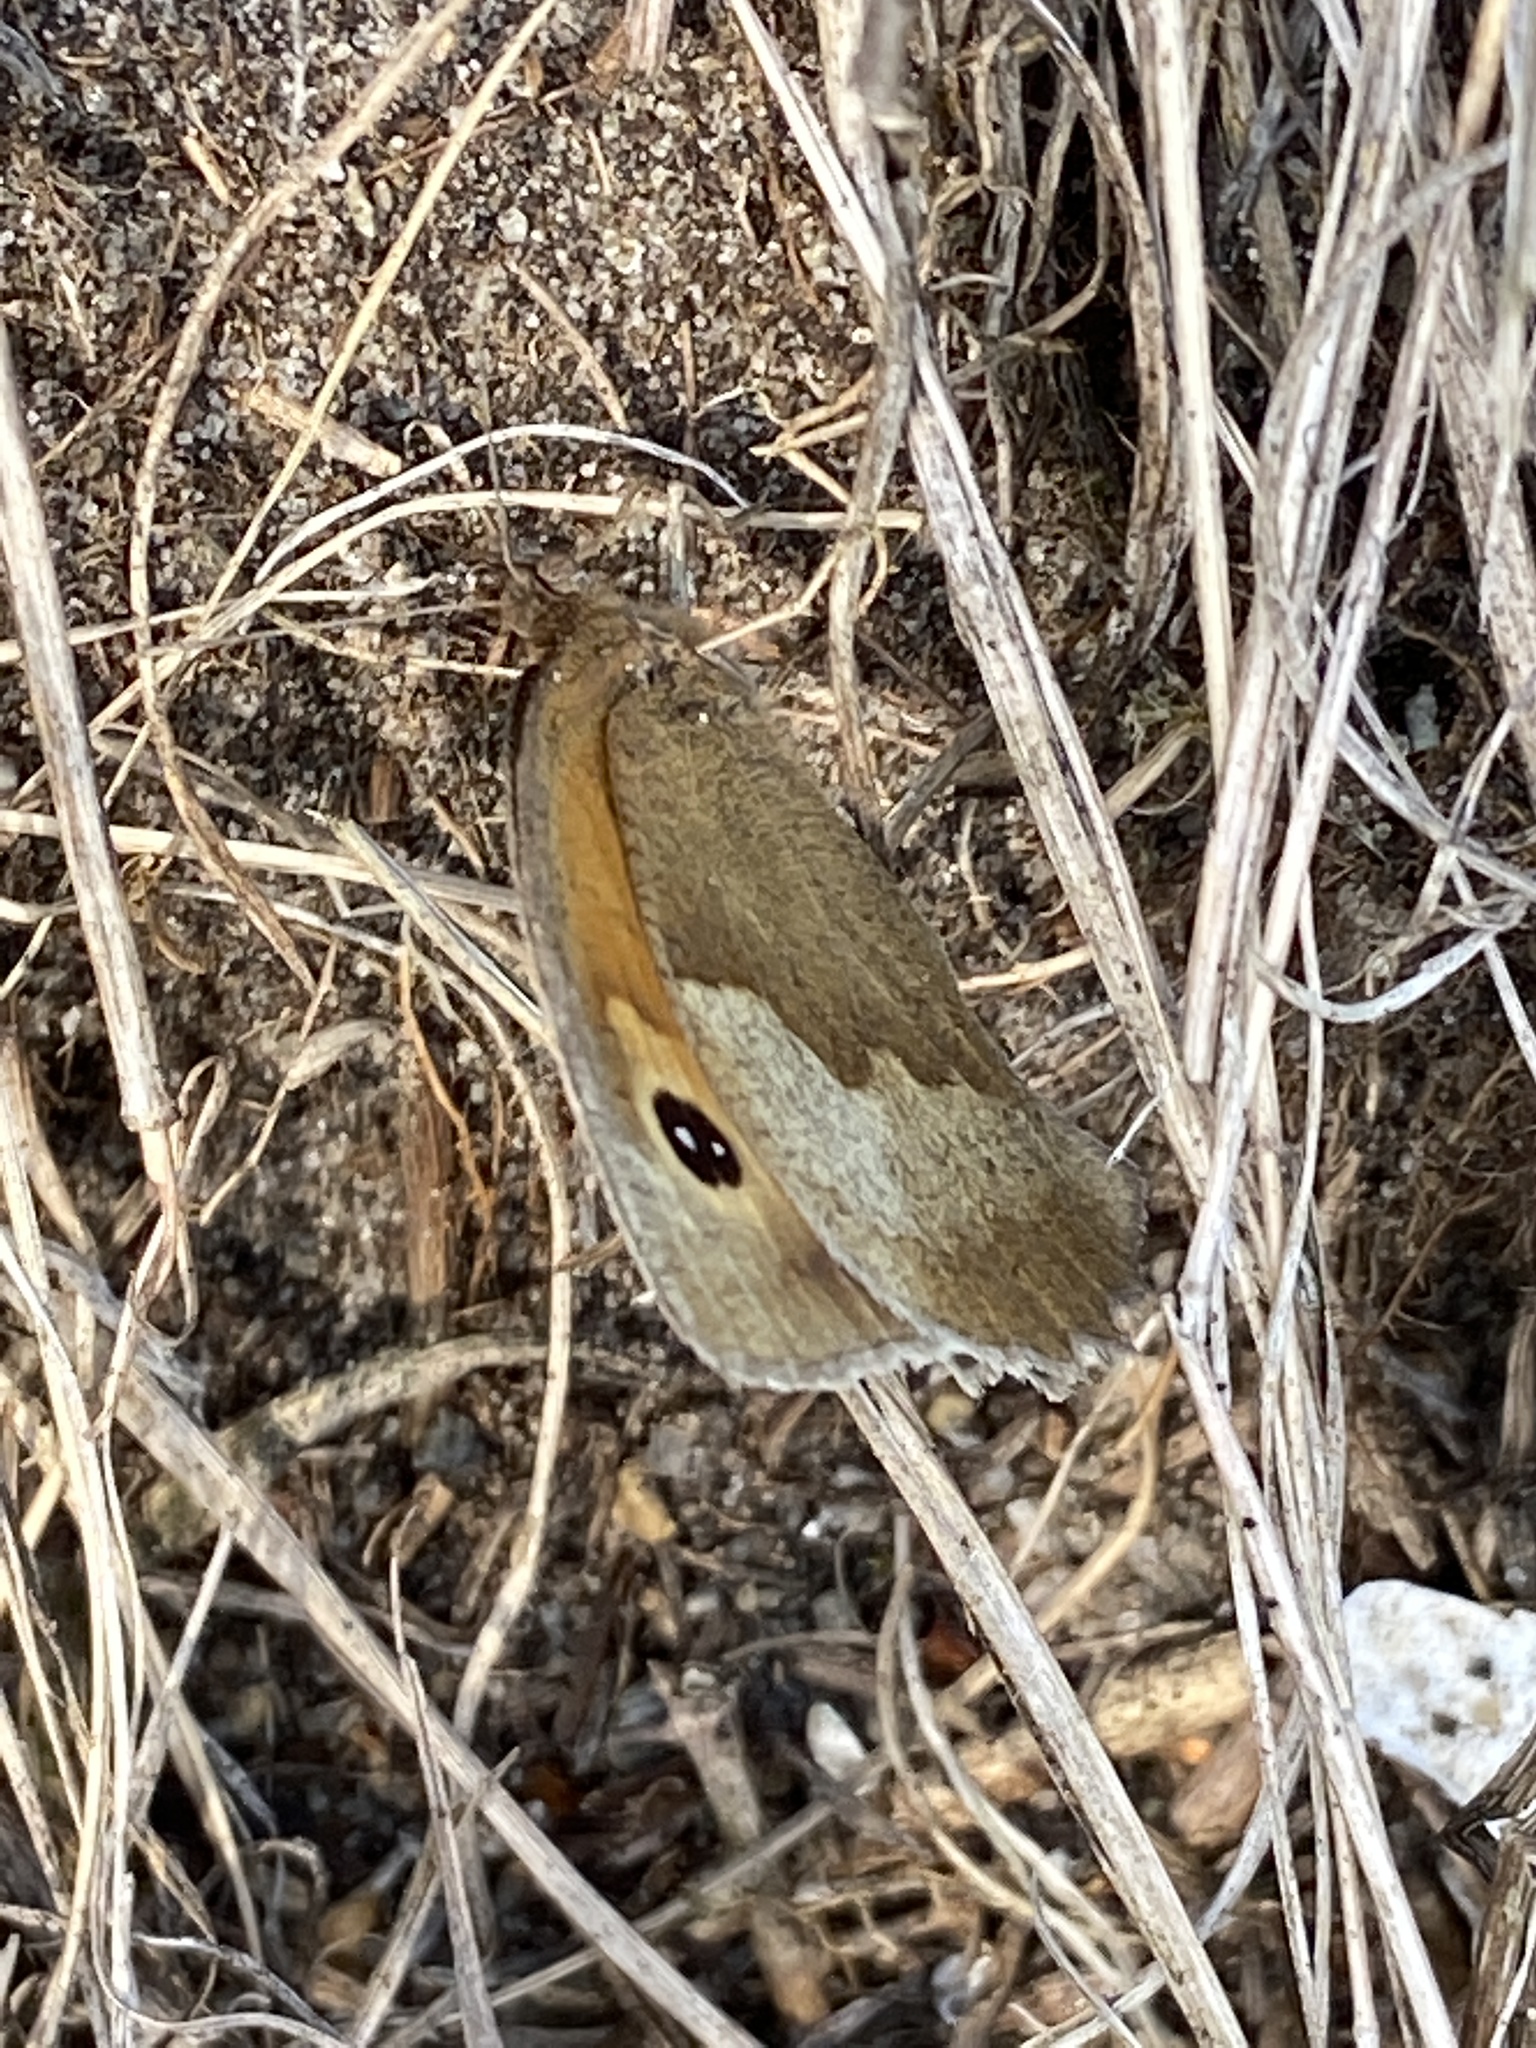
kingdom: Animalia
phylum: Arthropoda
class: Insecta
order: Lepidoptera
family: Nymphalidae
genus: Maniola
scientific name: Maniola jurtina
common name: Meadow brown
